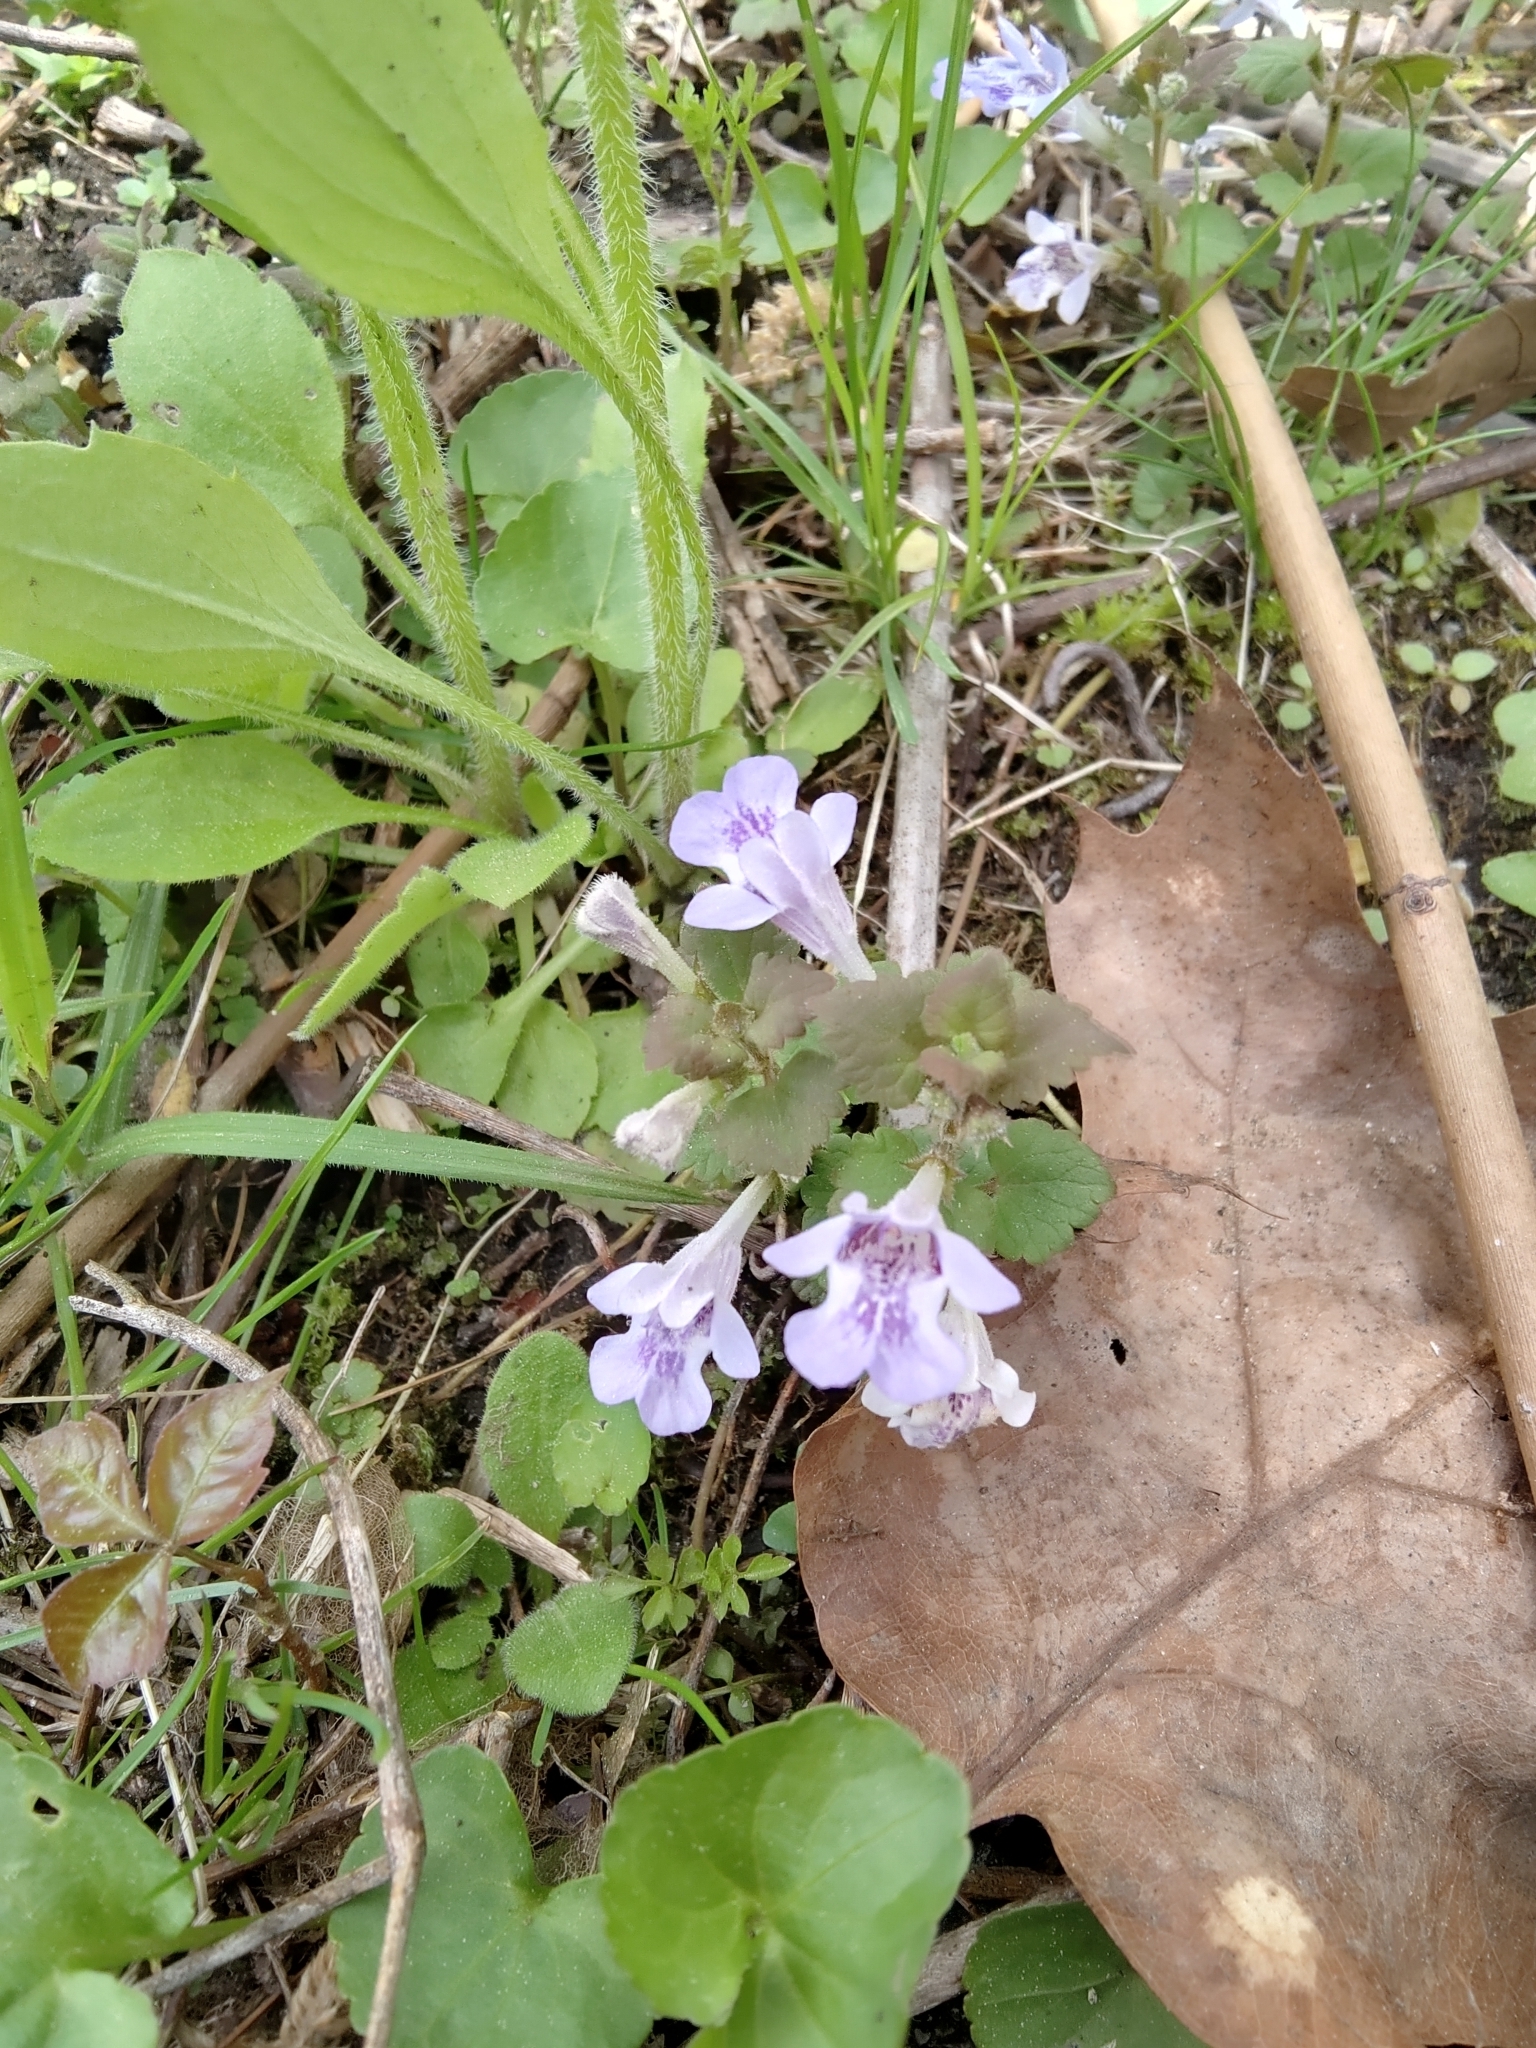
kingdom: Plantae
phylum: Tracheophyta
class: Magnoliopsida
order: Lamiales
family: Lamiaceae
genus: Glechoma
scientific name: Glechoma hederacea
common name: Ground ivy
